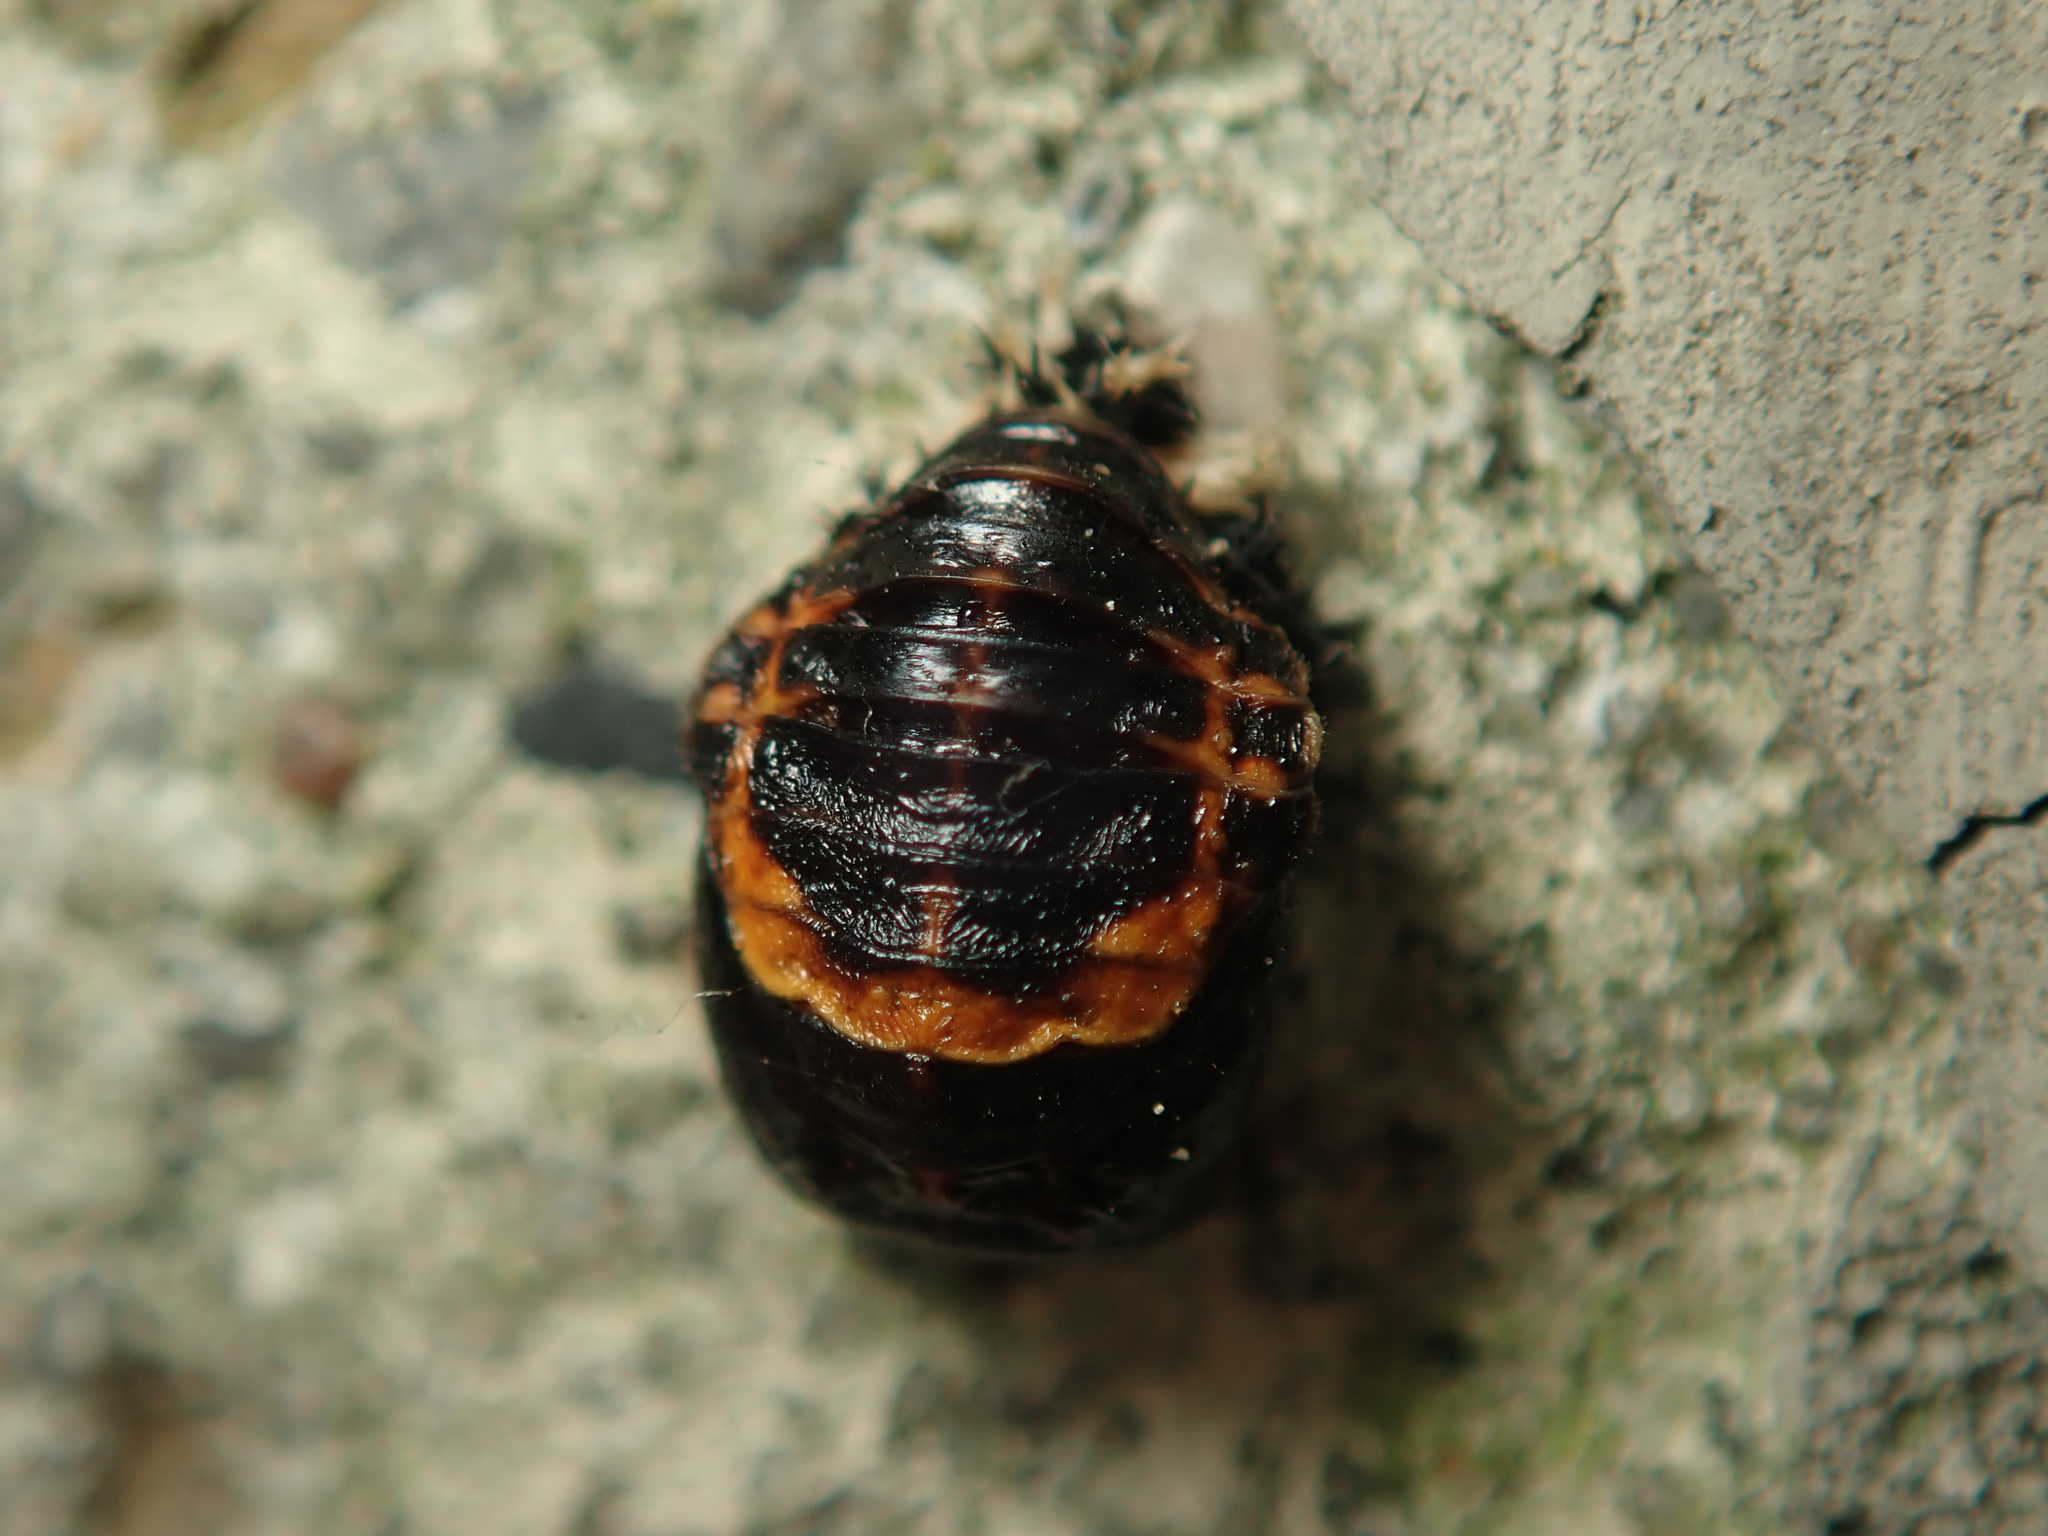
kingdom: Animalia
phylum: Arthropoda
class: Insecta
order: Coleoptera
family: Coccinellidae
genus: Harmonia
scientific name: Harmonia axyridis
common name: Harlequin ladybird
